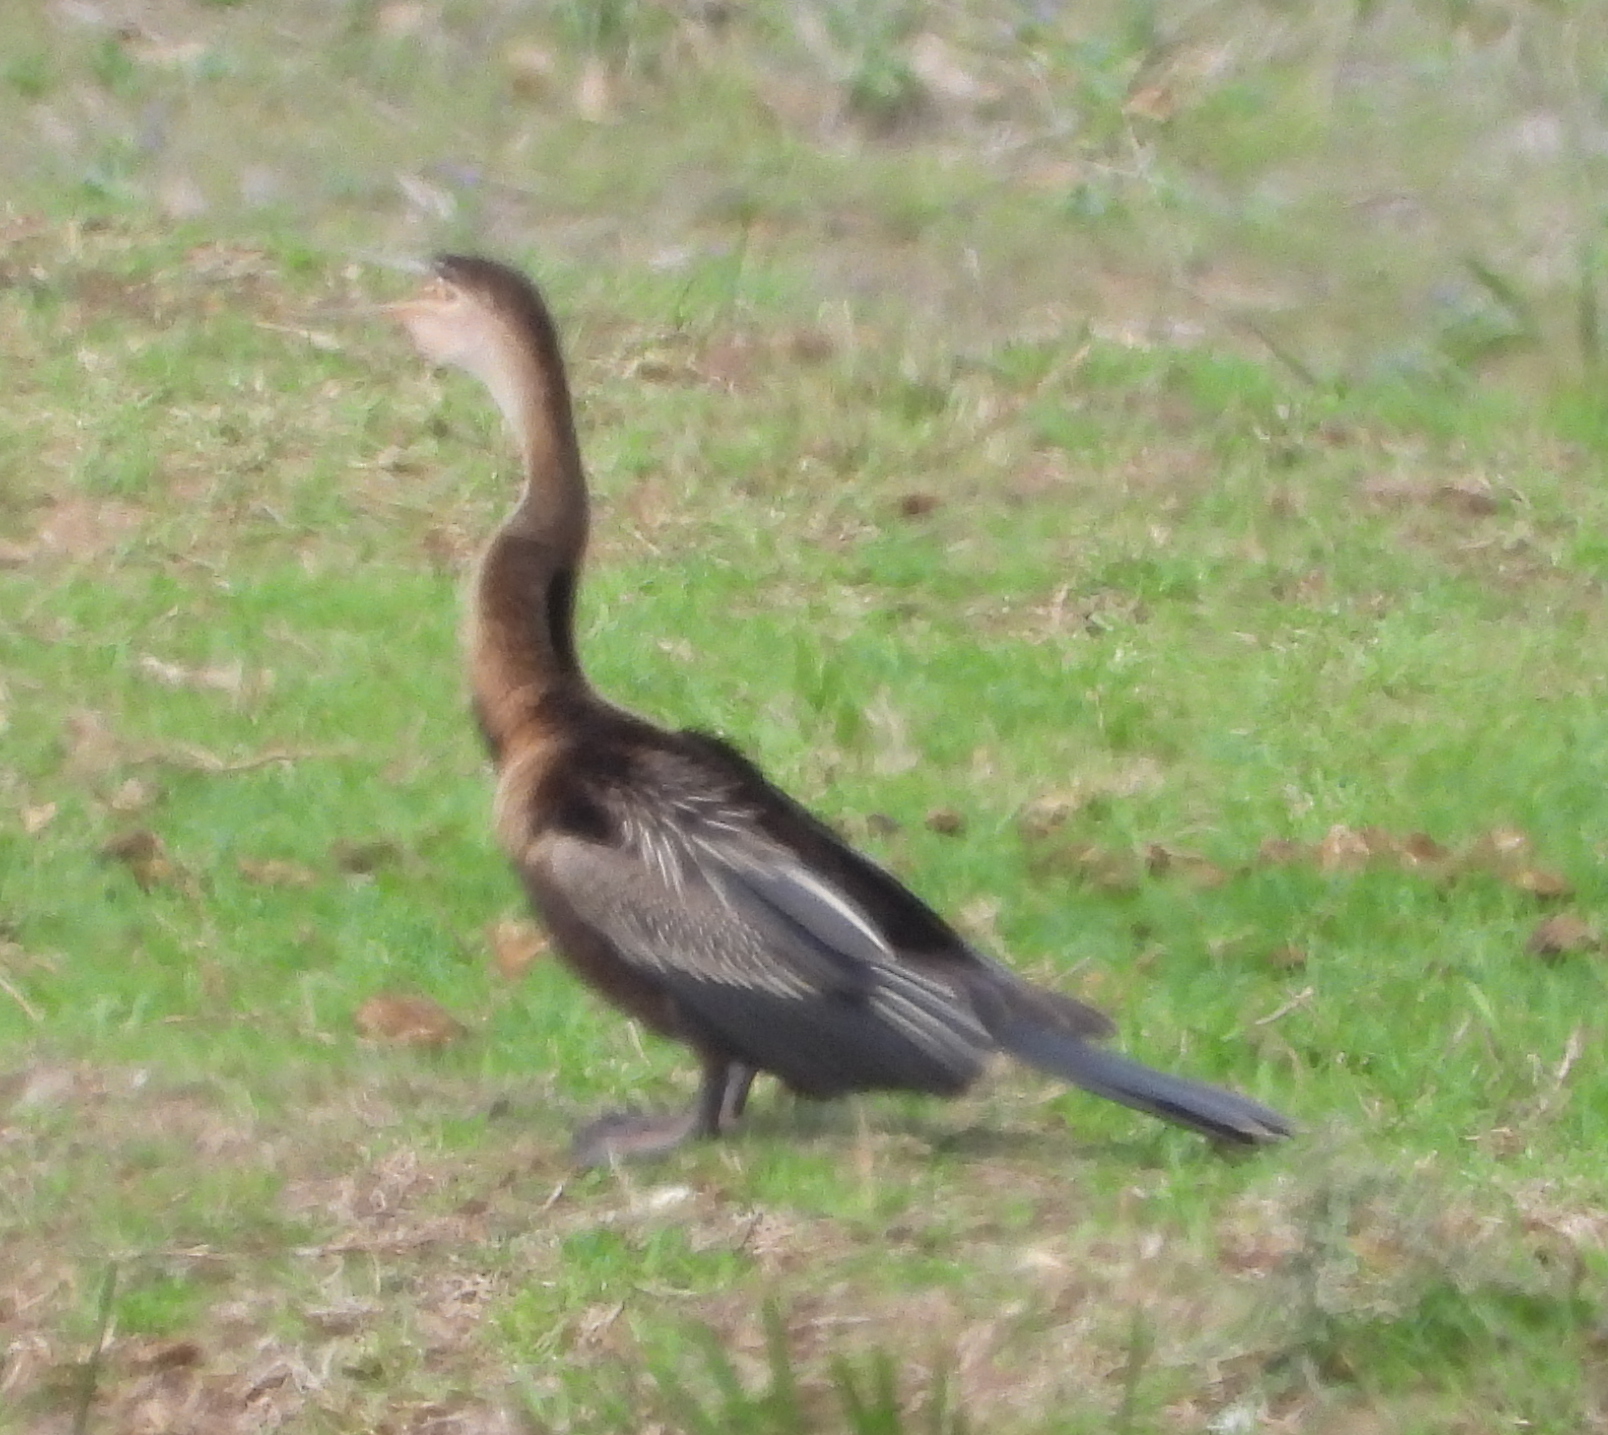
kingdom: Animalia
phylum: Chordata
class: Aves
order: Suliformes
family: Anhingidae
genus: Anhinga
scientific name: Anhinga rufa
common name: African darter
